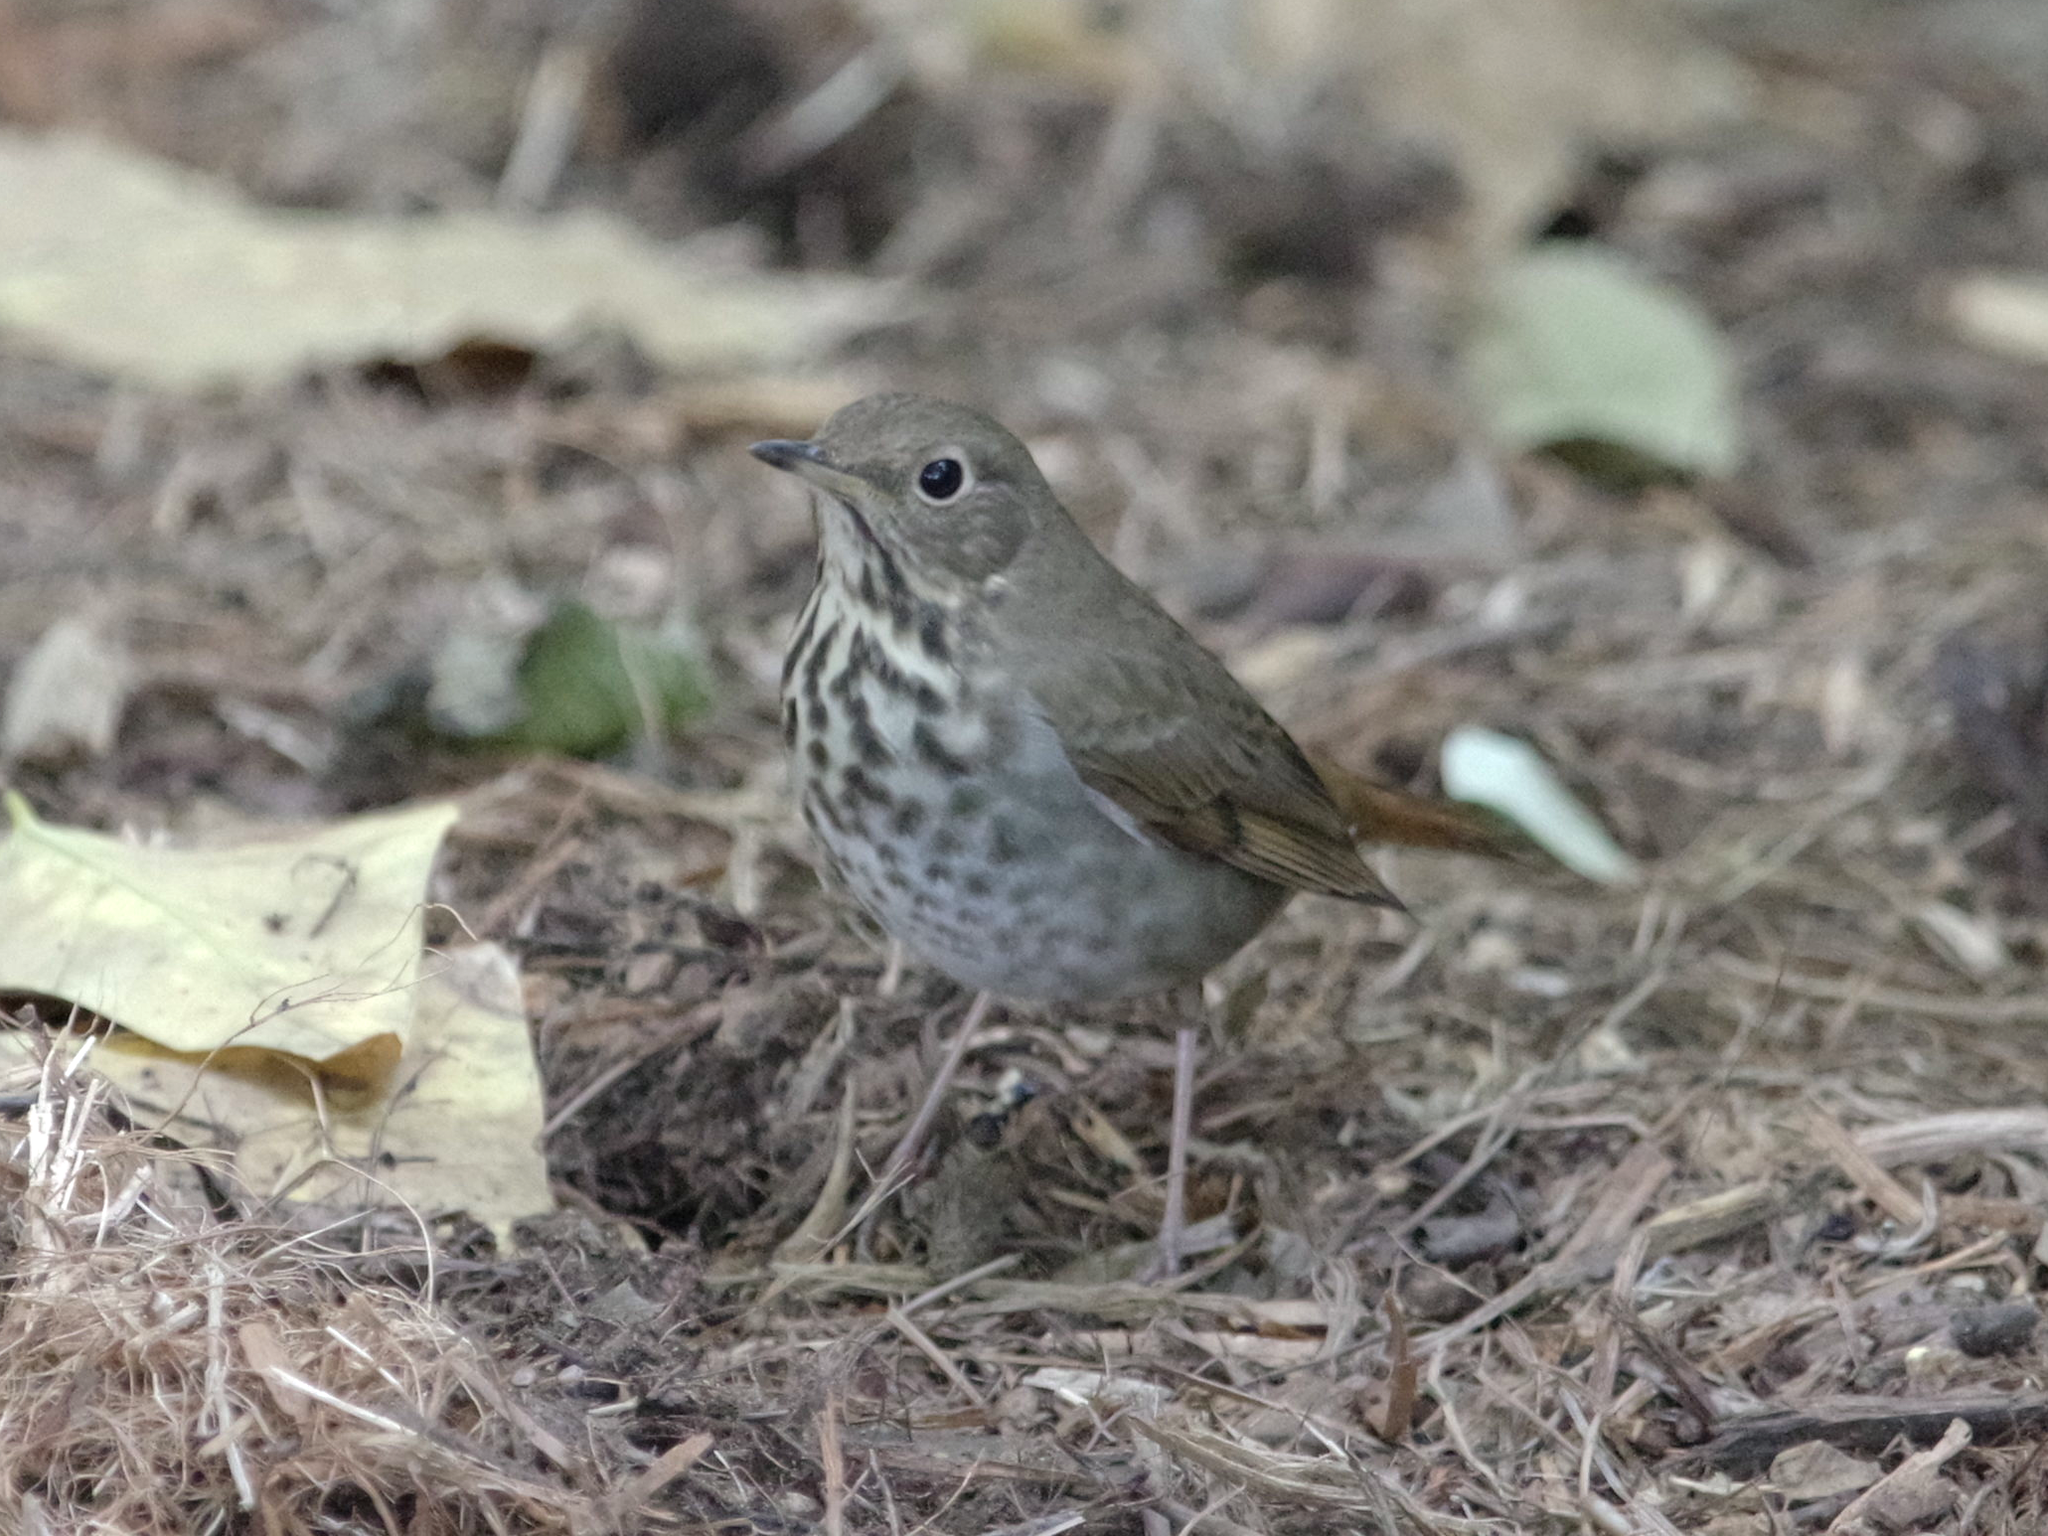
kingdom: Animalia
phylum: Chordata
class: Aves
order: Passeriformes
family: Turdidae
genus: Catharus
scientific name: Catharus guttatus
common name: Hermit thrush
